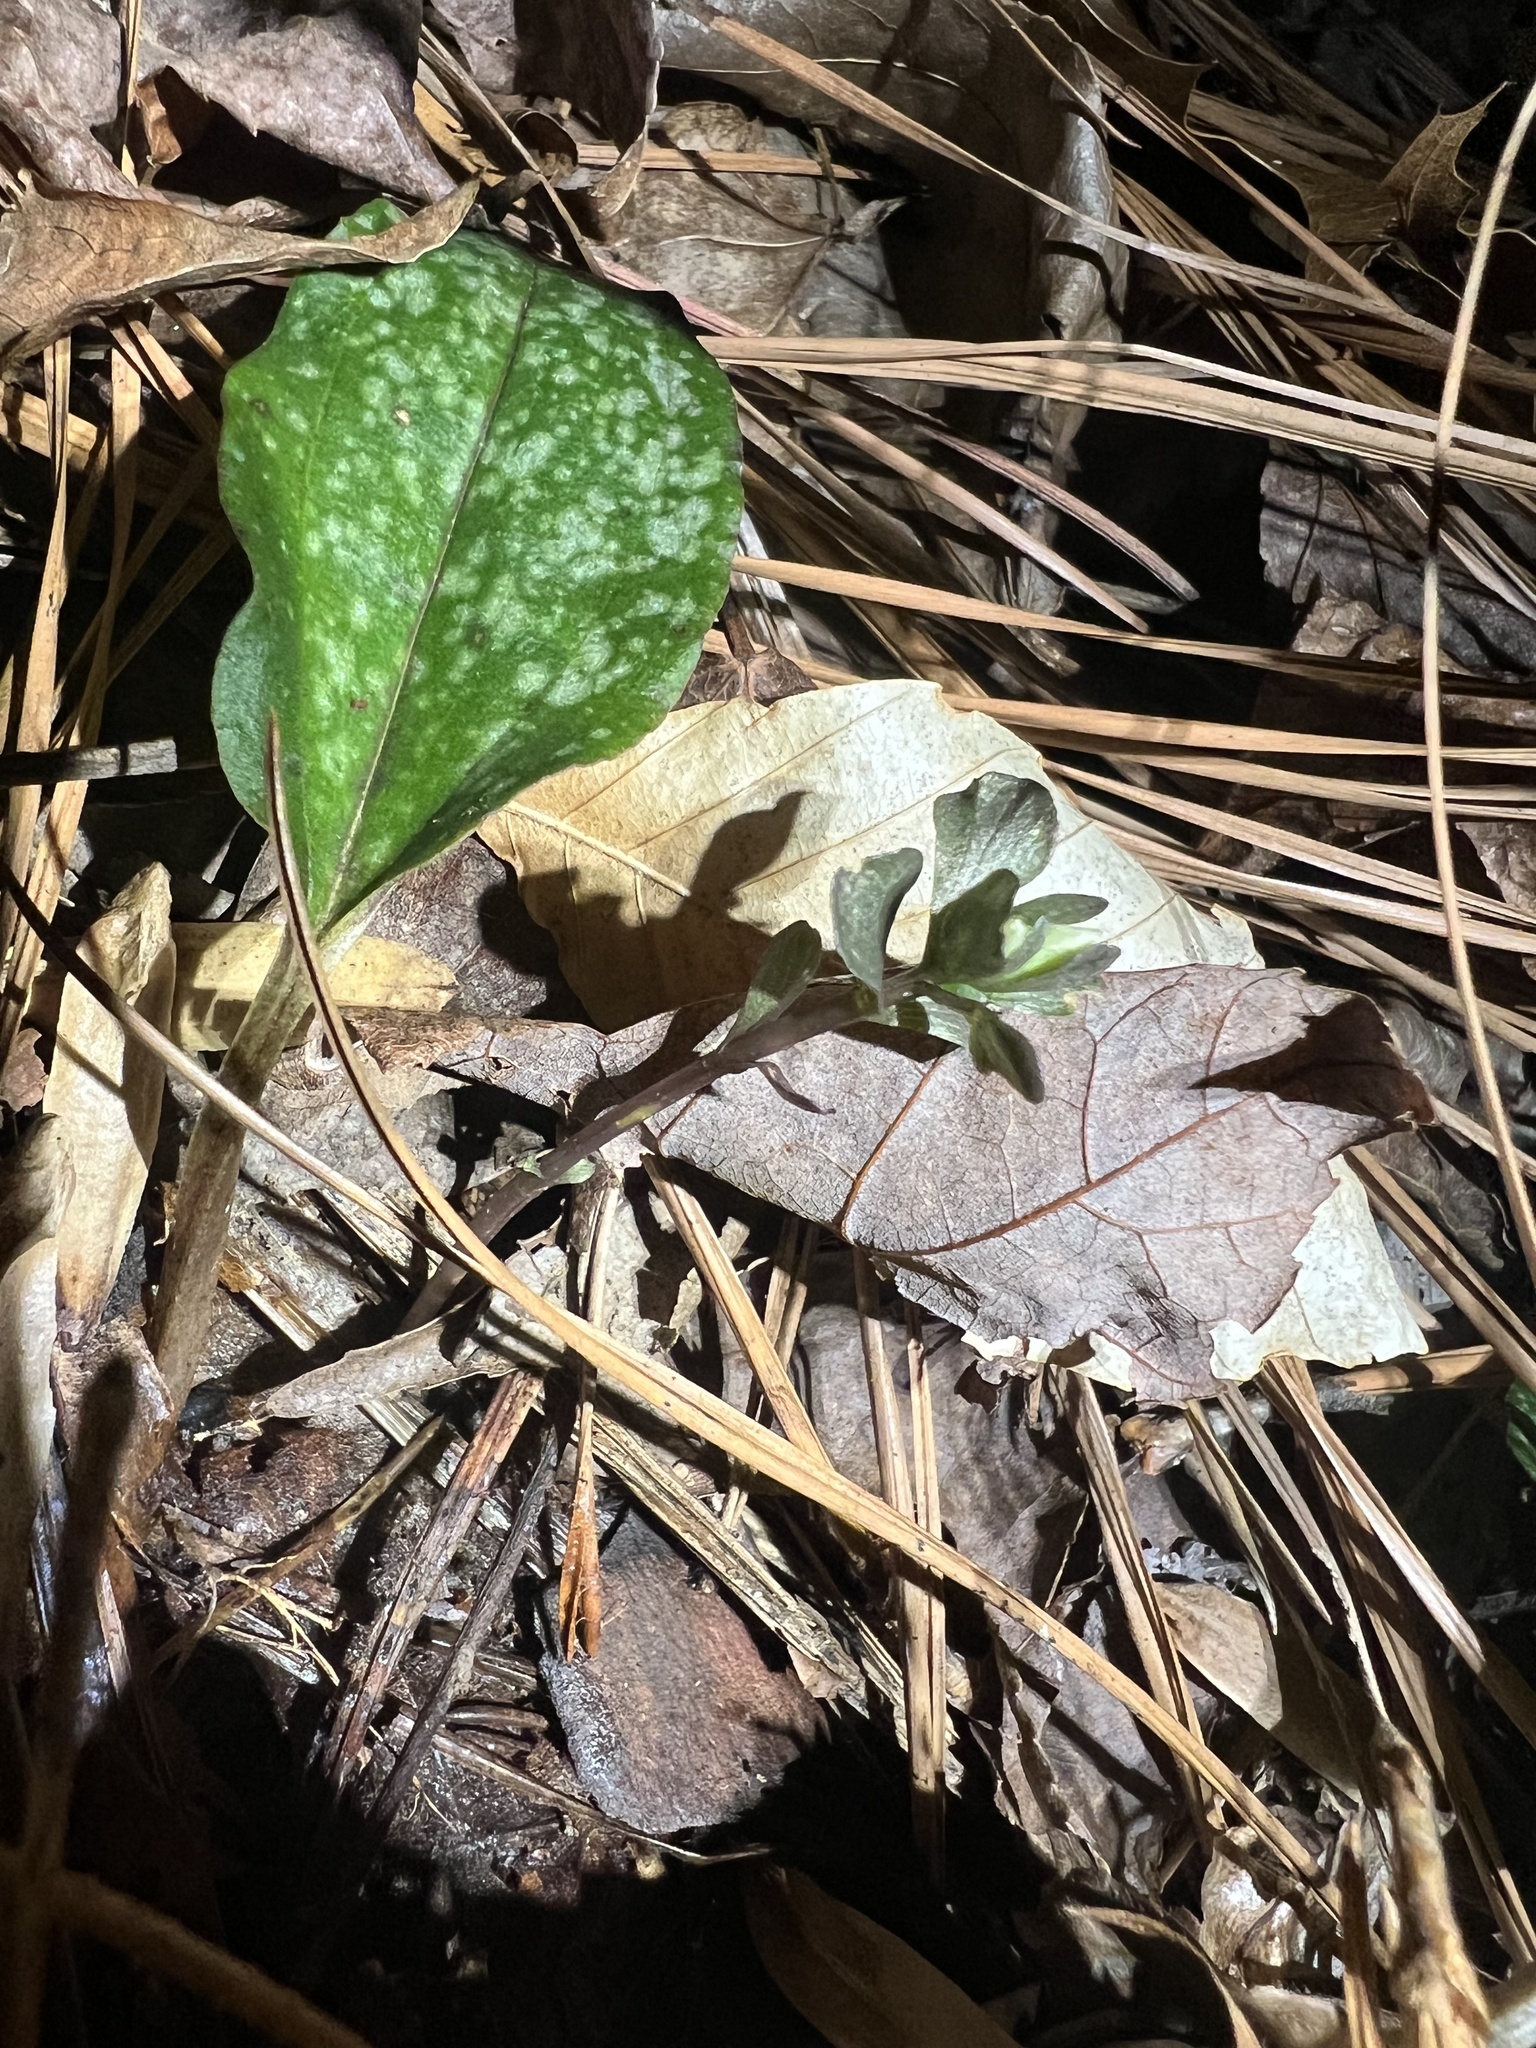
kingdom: Plantae
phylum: Tracheophyta
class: Liliopsida
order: Asparagales
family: Orchidaceae
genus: Tipularia
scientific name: Tipularia discolor
